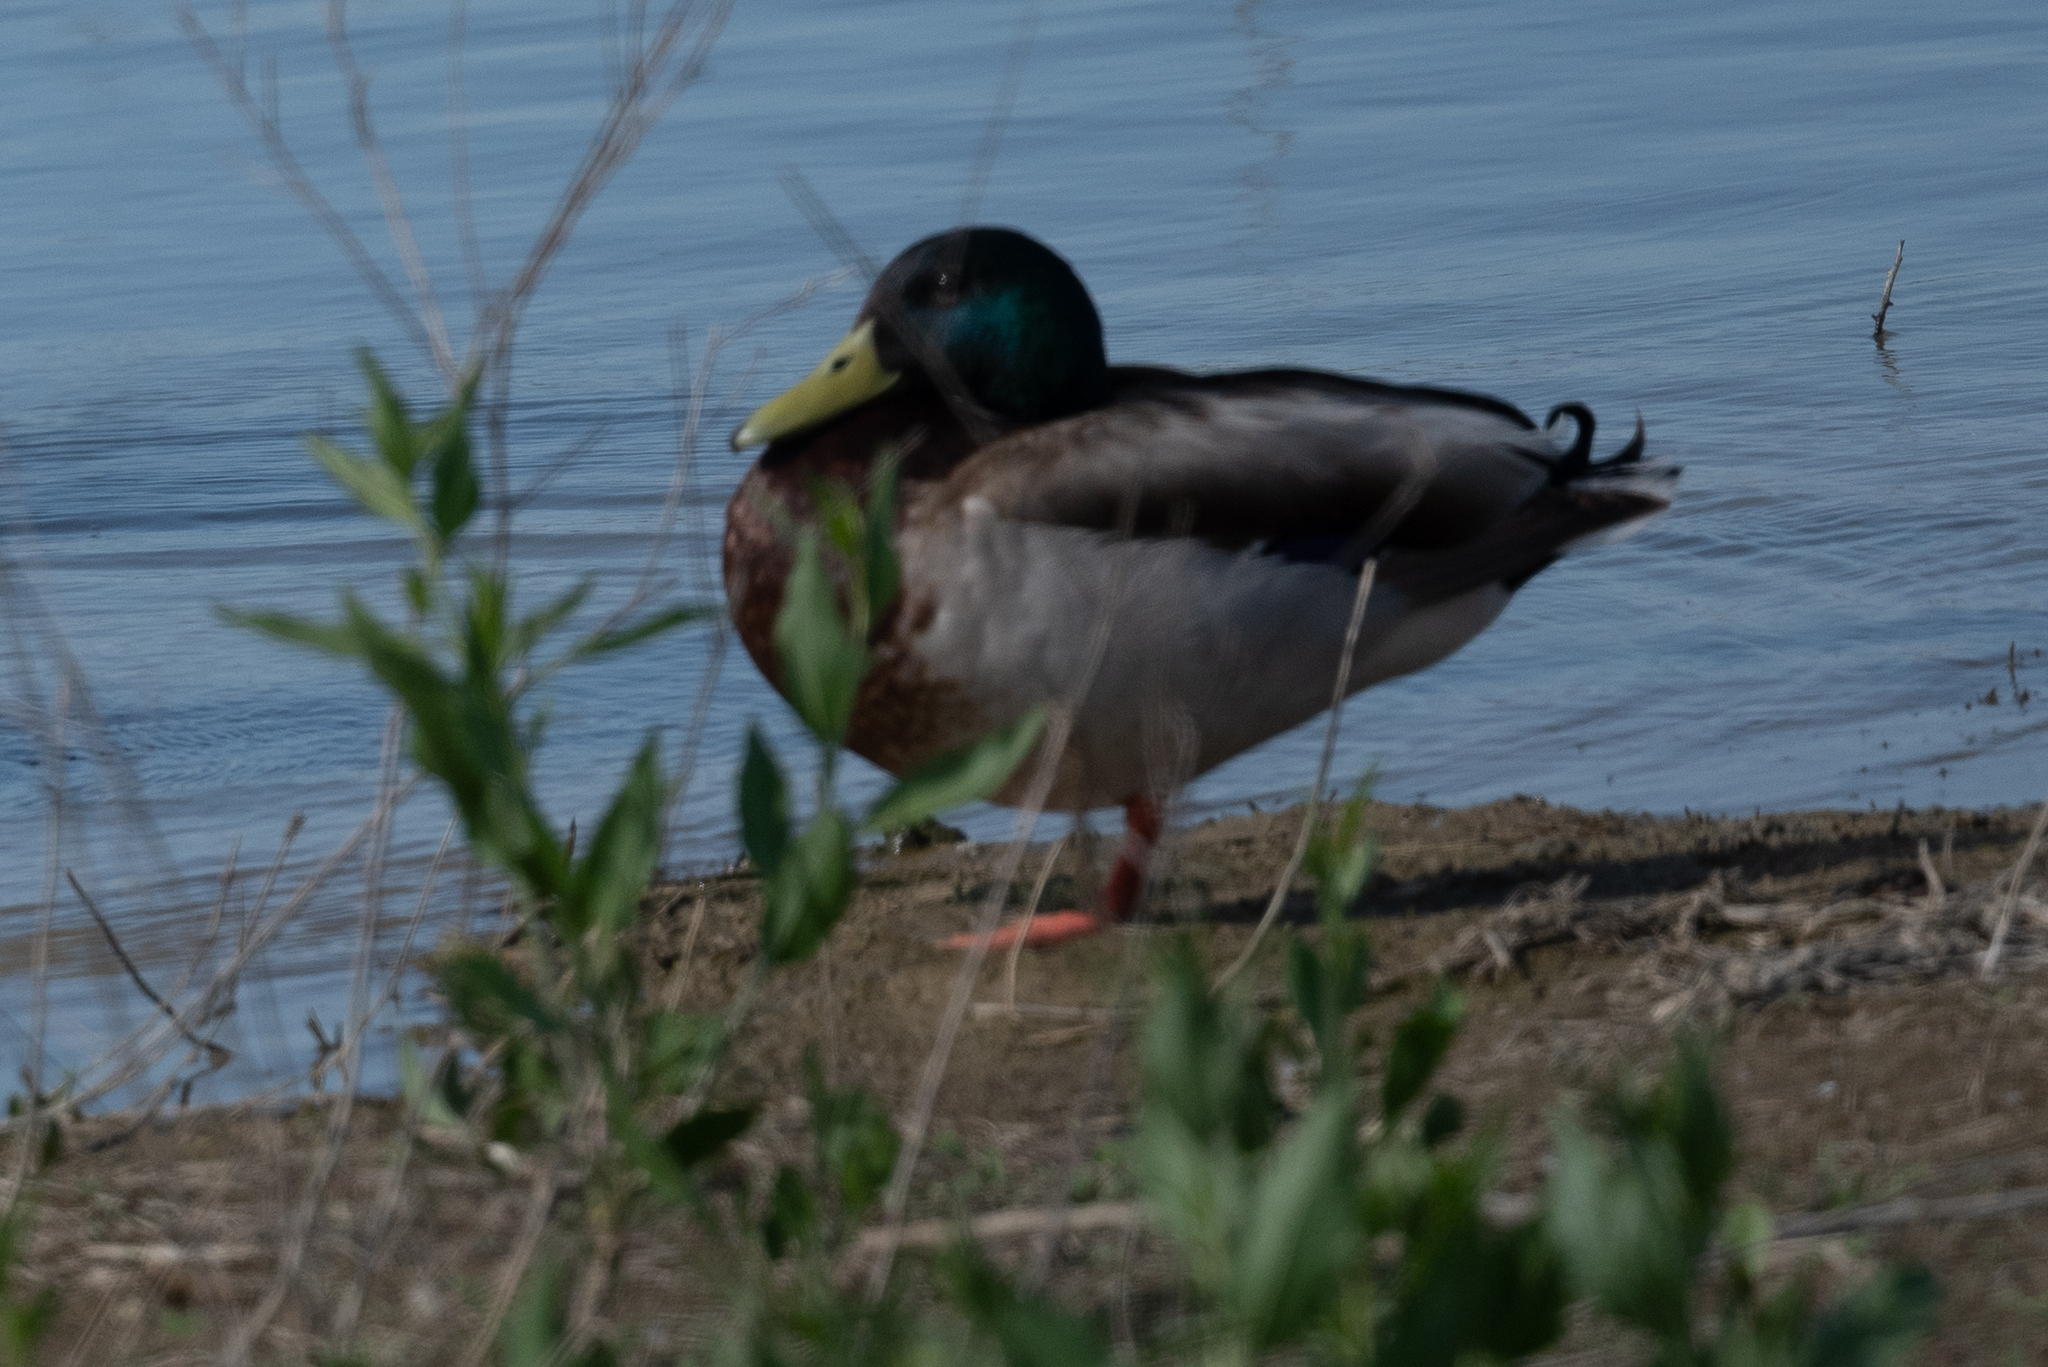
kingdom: Animalia
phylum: Chordata
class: Aves
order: Anseriformes
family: Anatidae
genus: Anas
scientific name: Anas platyrhynchos
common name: Mallard
